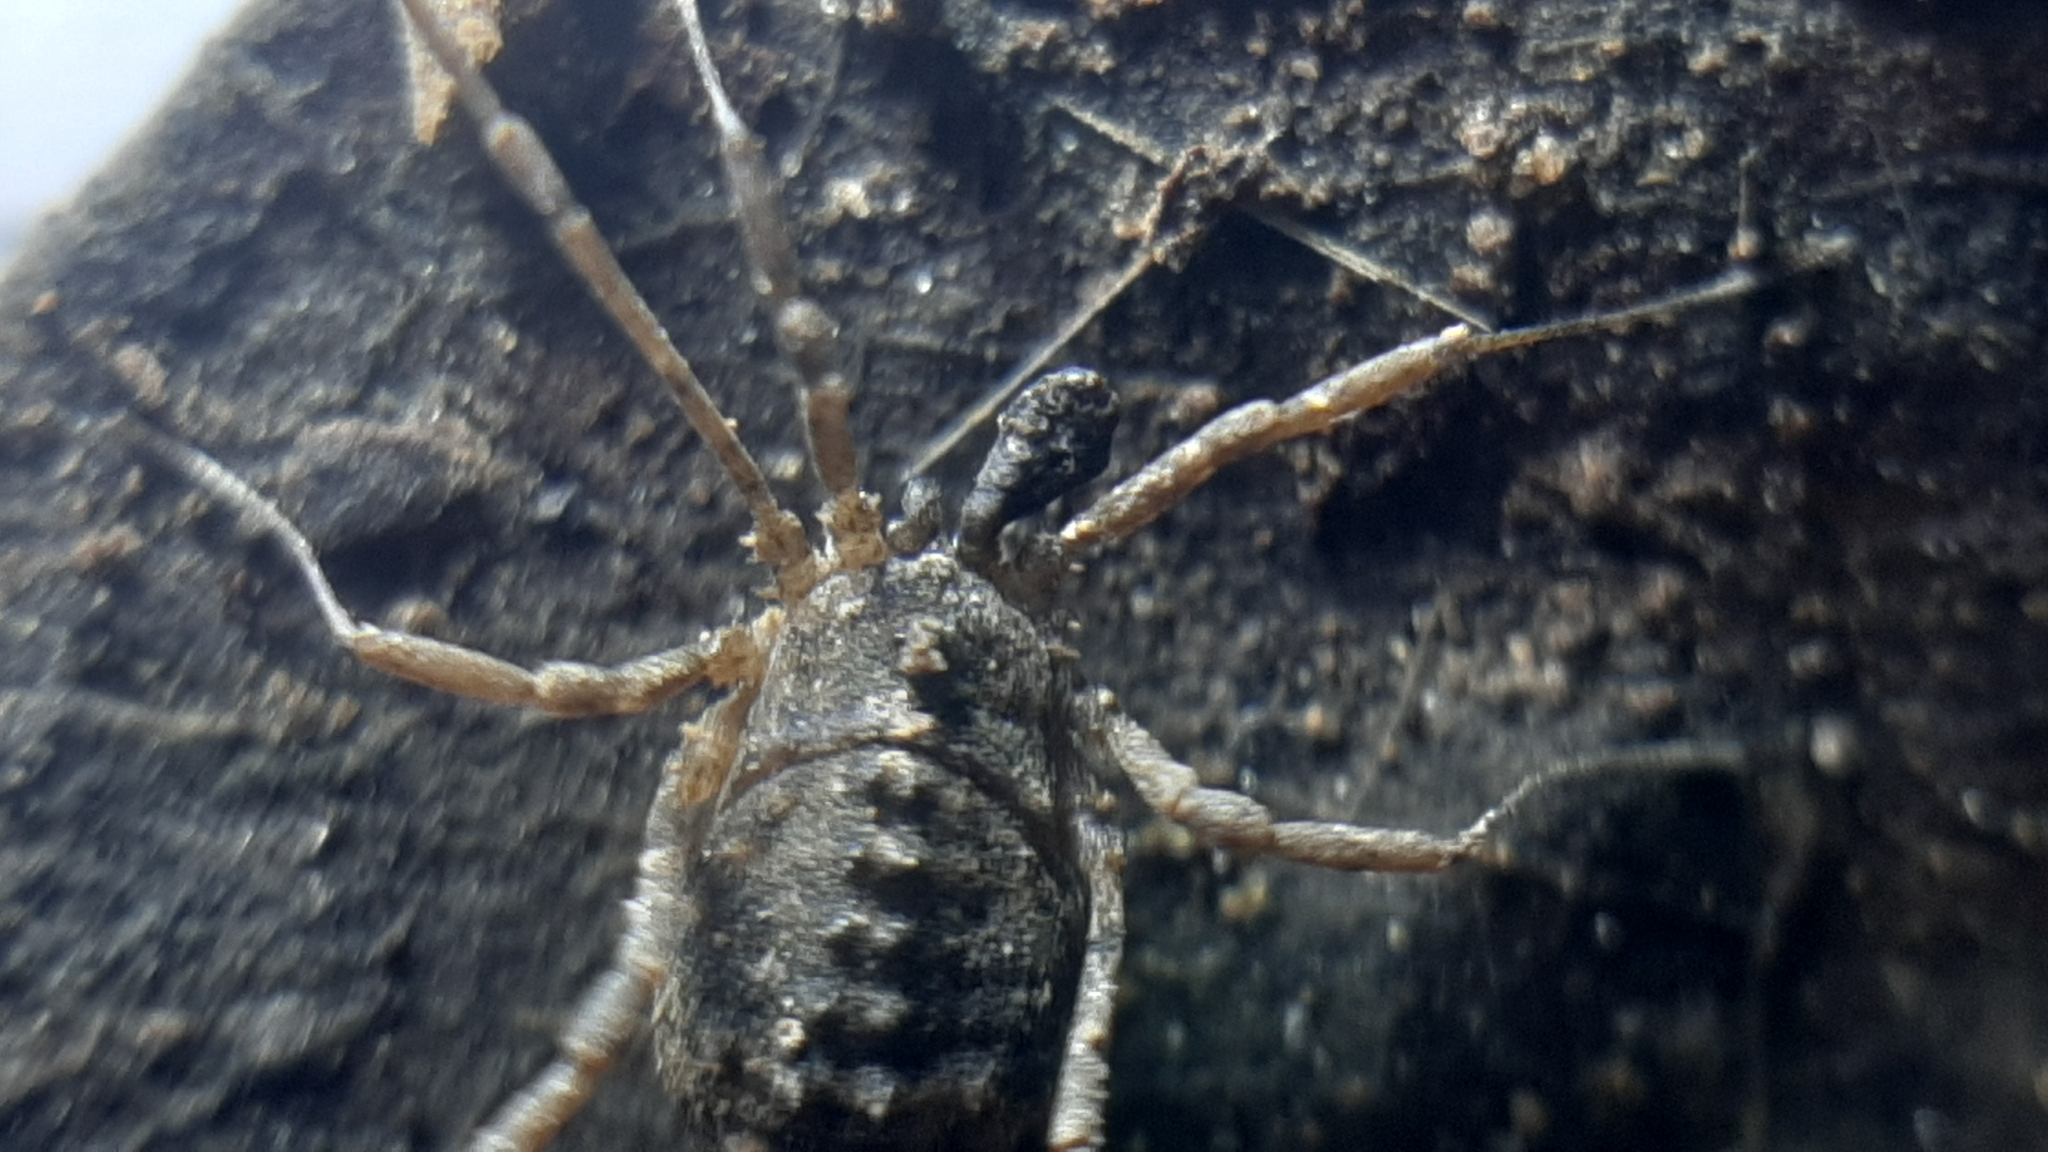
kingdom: Animalia
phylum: Arthropoda
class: Arachnida
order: Opiliones
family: Sclerosomatidae
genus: Astrobunus
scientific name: Astrobunus laevipes
